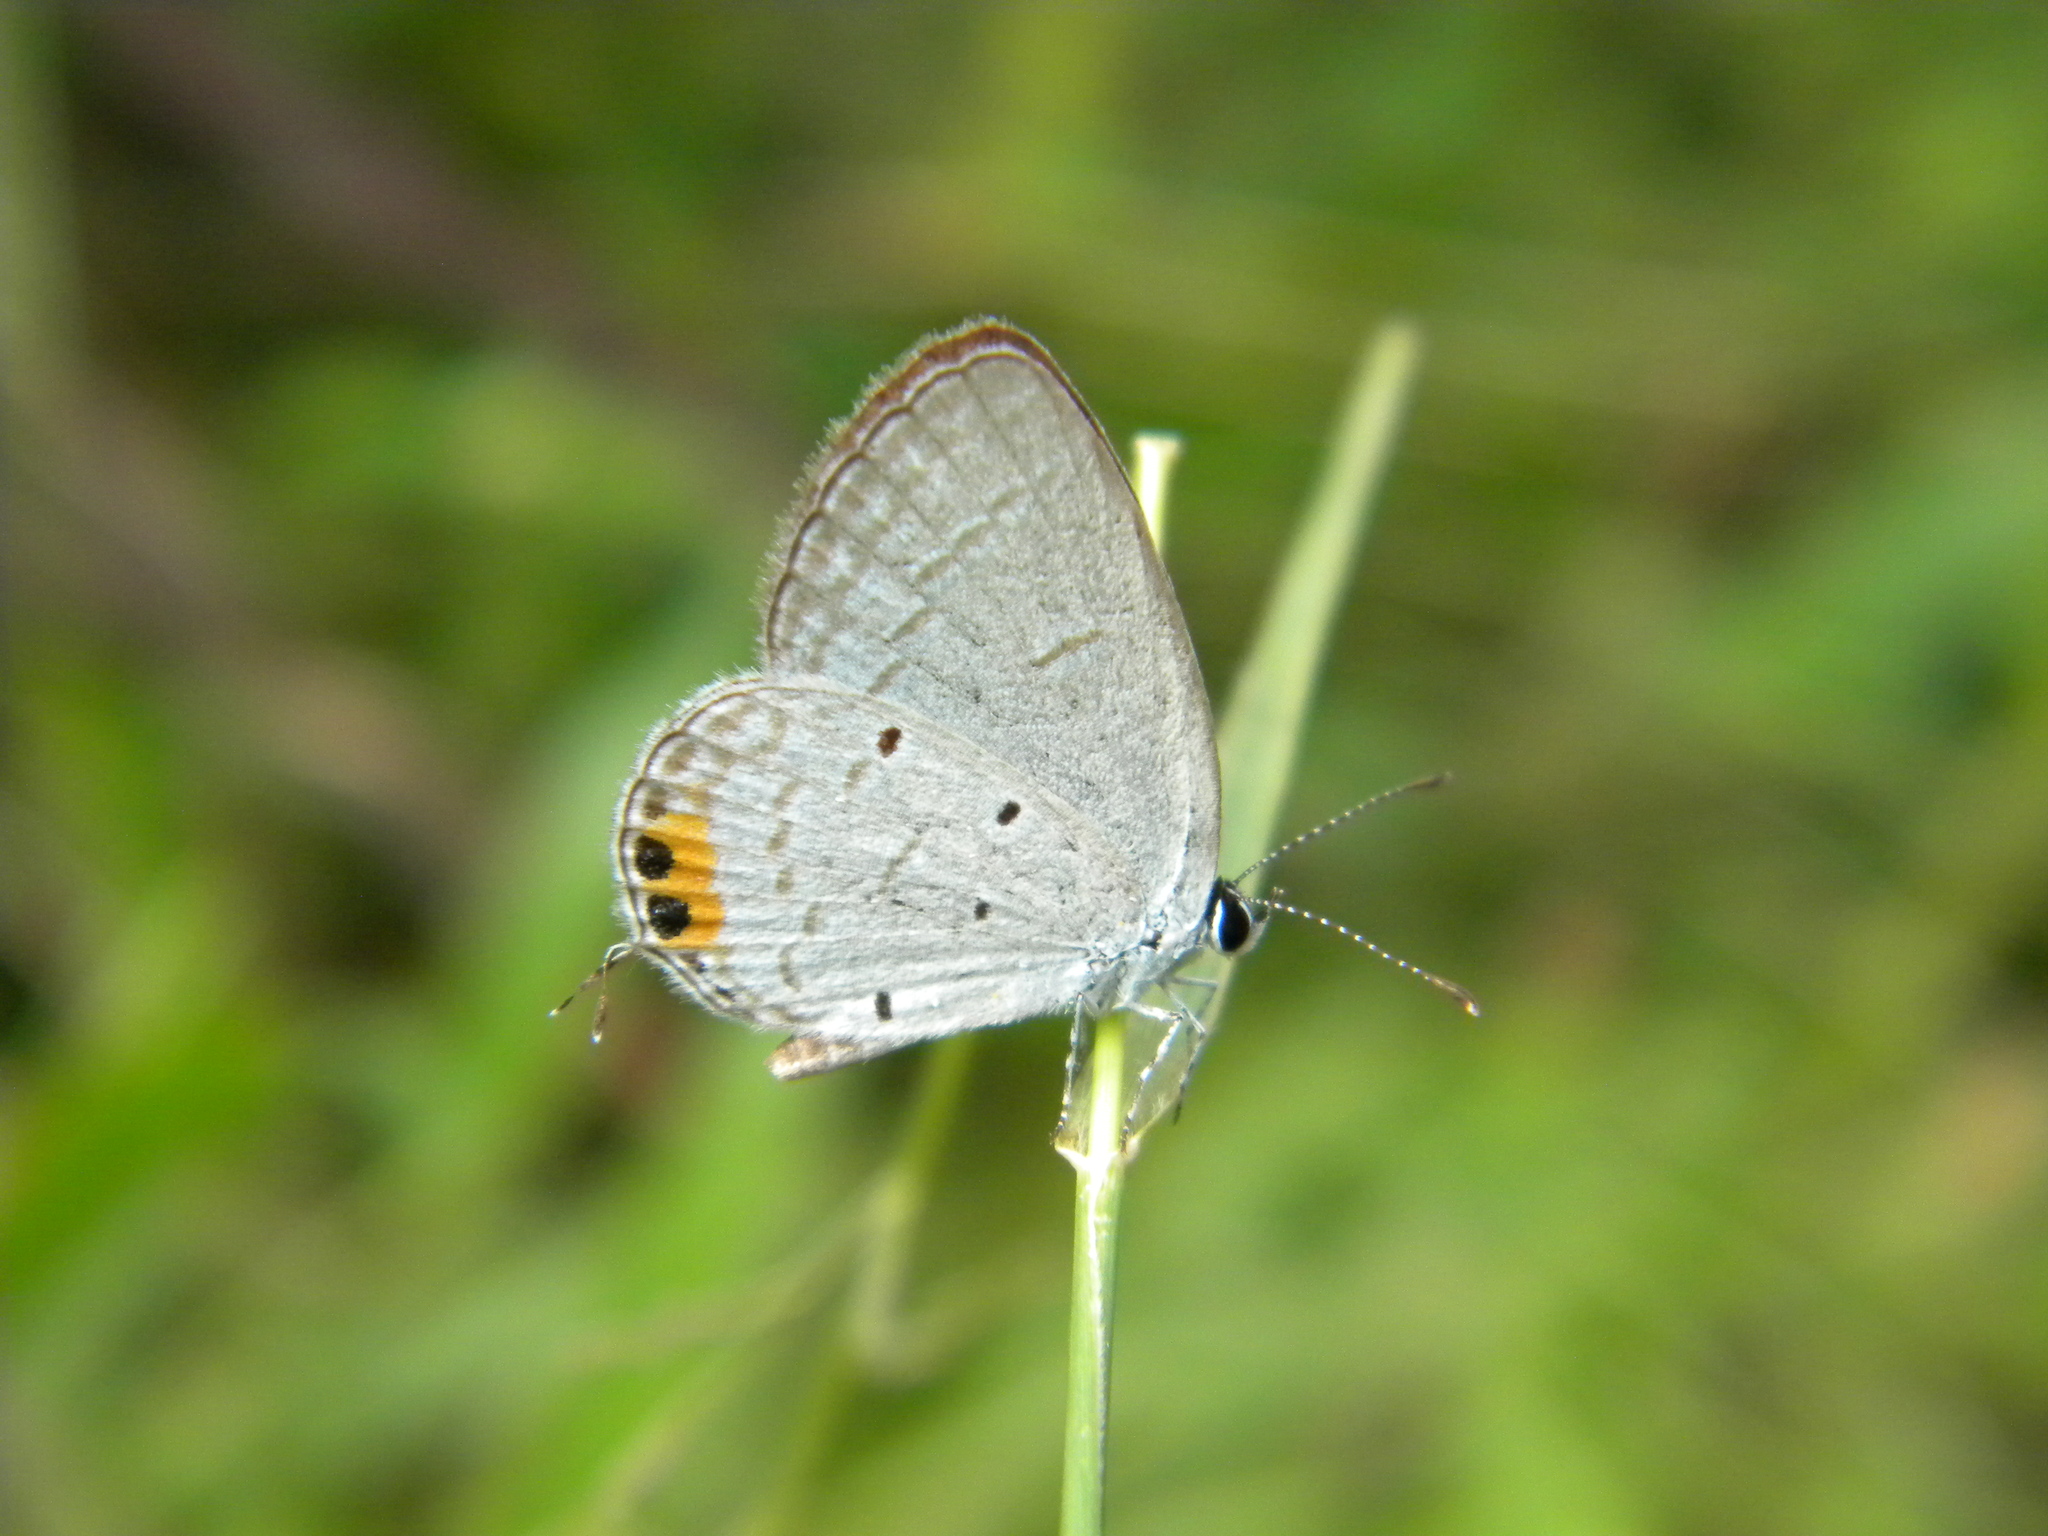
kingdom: Animalia
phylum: Arthropoda
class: Insecta
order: Lepidoptera
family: Lycaenidae
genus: Everes
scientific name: Everes lacturnus
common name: Orange-tipped pea-blue
